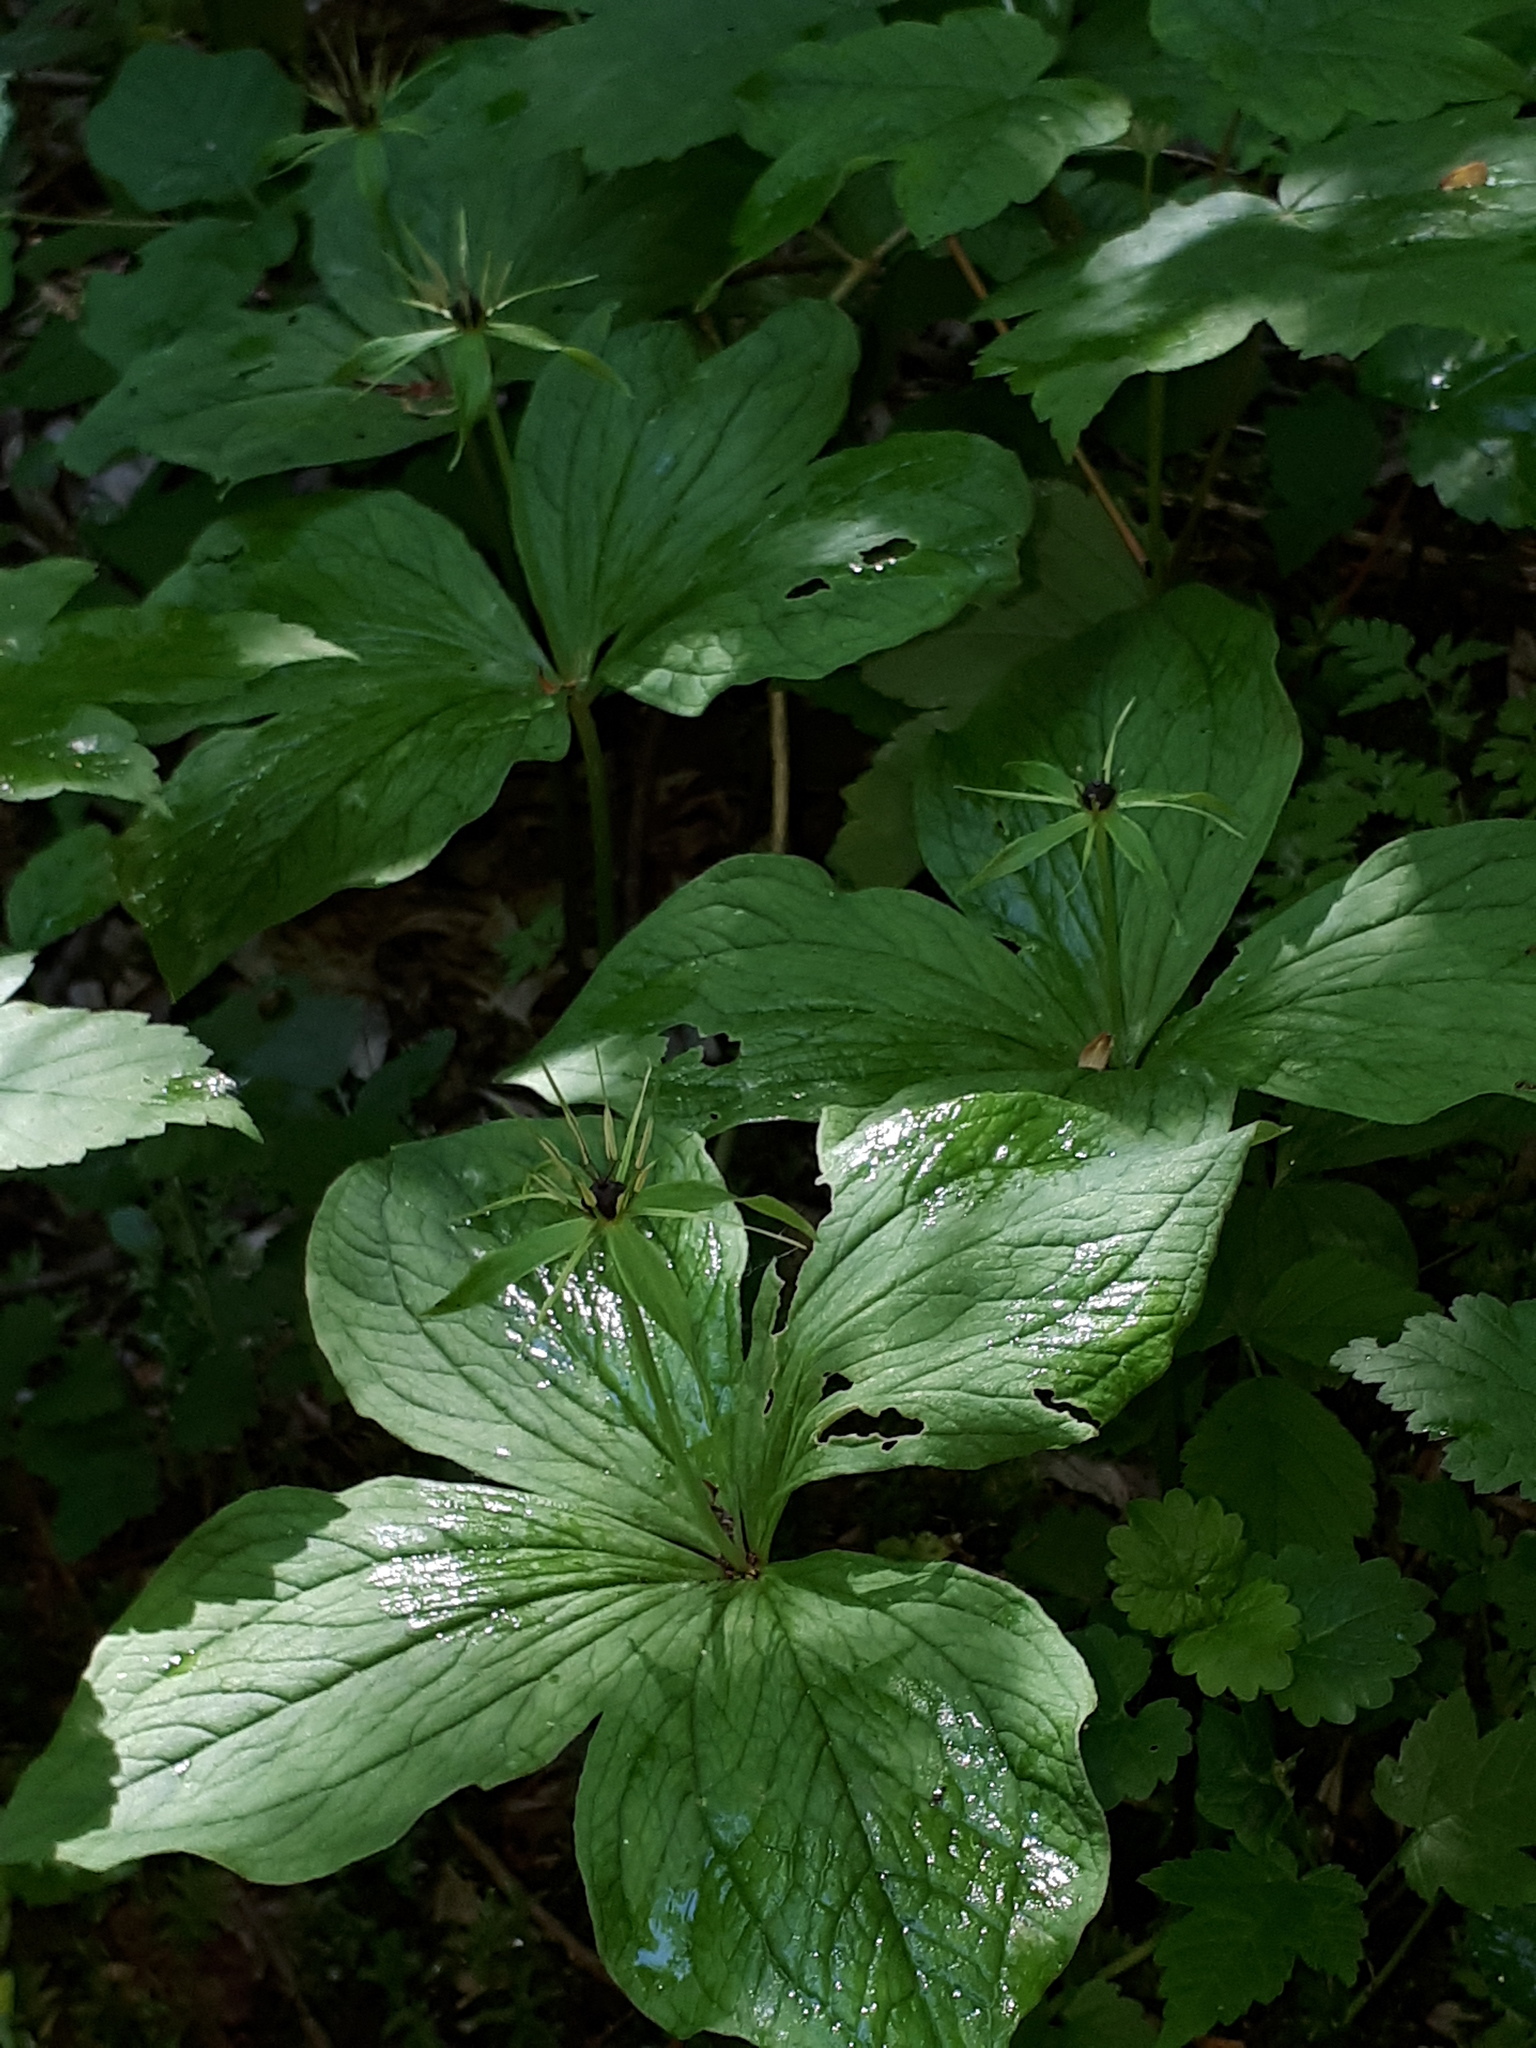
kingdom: Plantae
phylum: Tracheophyta
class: Liliopsida
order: Liliales
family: Melanthiaceae
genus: Paris
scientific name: Paris quadrifolia
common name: Herb-paris
